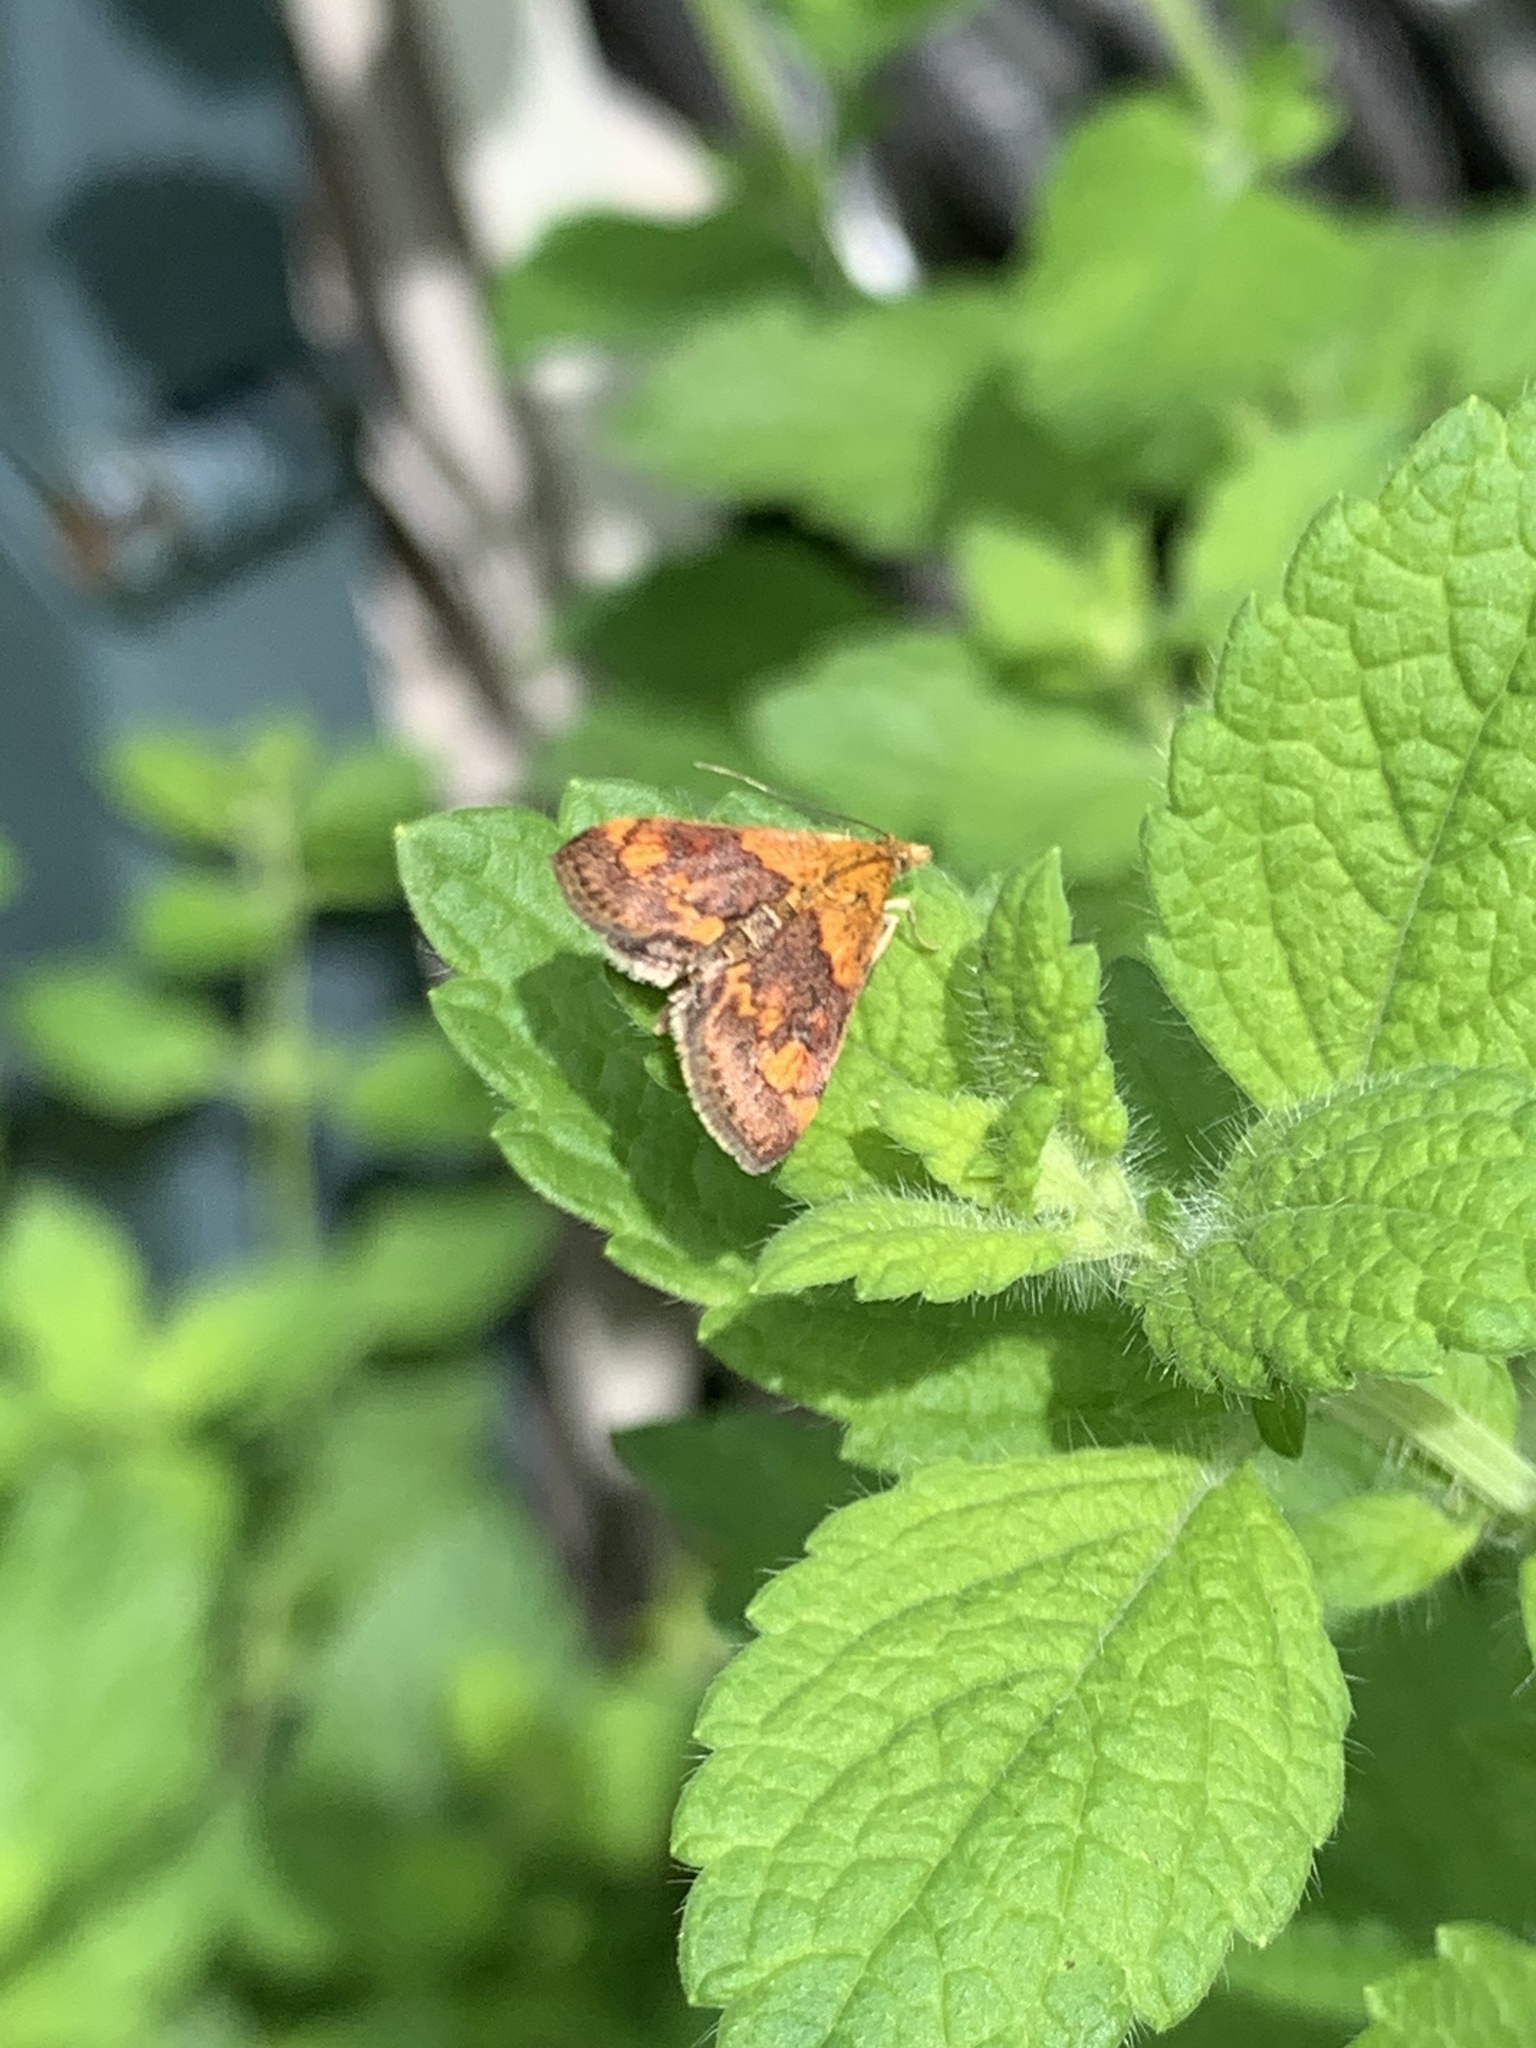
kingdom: Animalia
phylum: Arthropoda
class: Insecta
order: Lepidoptera
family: Crambidae
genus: Pyrausta
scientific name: Pyrausta orphisalis
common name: Orange mint moth
